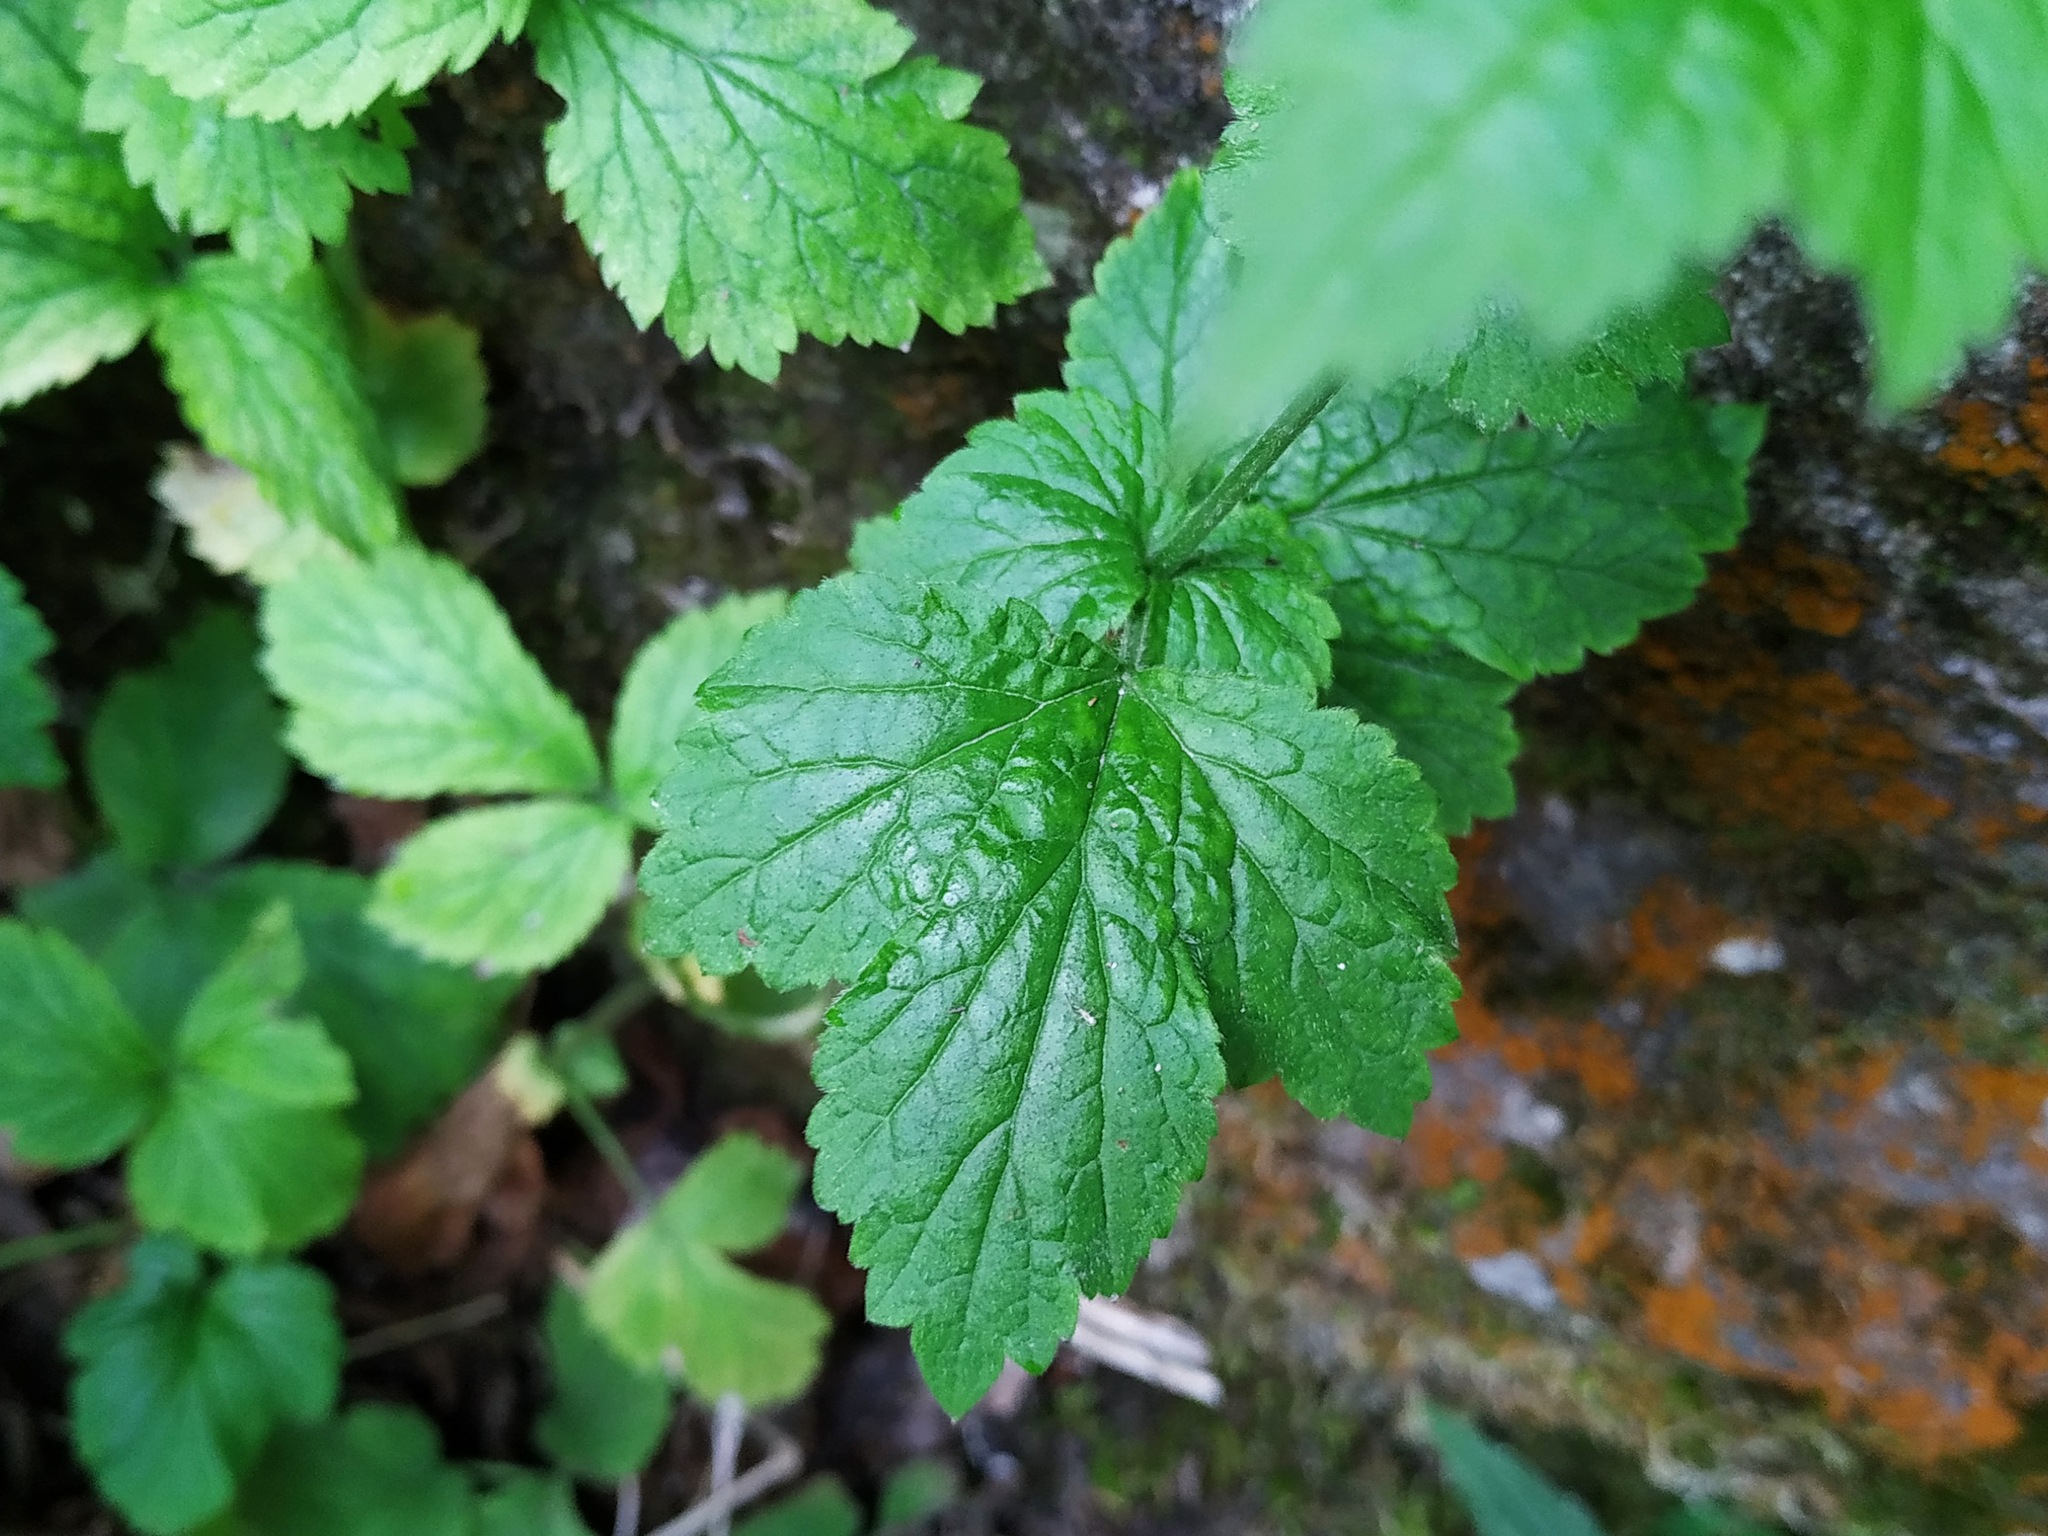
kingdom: Plantae
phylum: Tracheophyta
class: Magnoliopsida
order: Rosales
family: Rosaceae
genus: Geum
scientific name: Geum urbanum
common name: Wood avens
